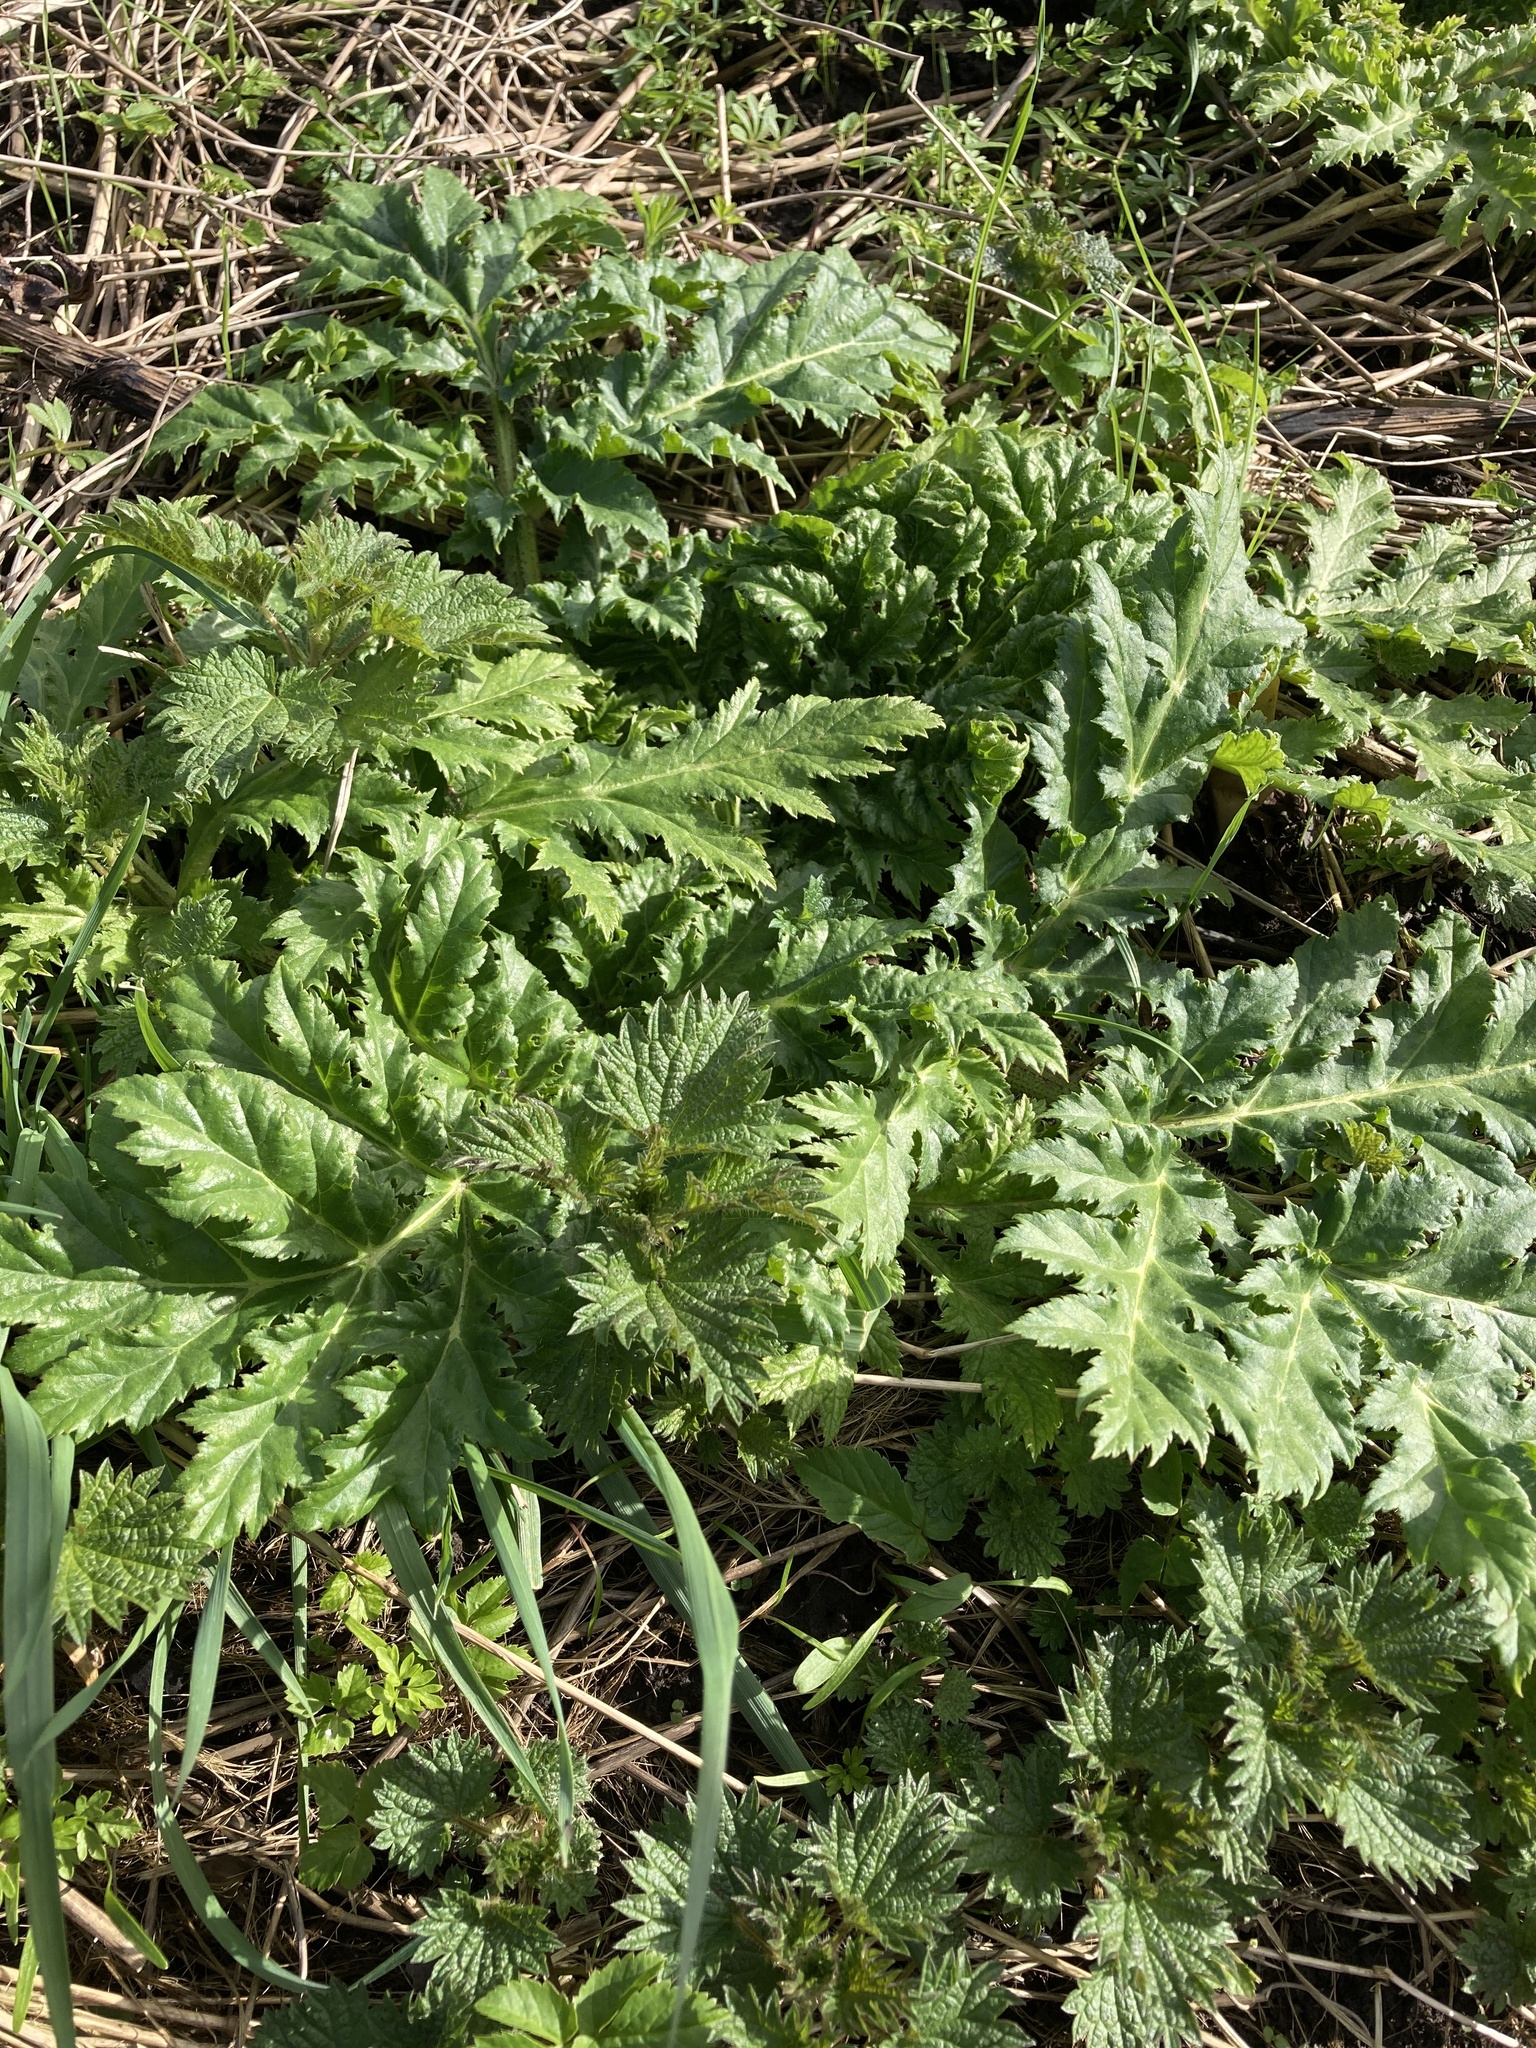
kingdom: Plantae
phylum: Tracheophyta
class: Magnoliopsida
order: Apiales
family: Apiaceae
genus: Heracleum
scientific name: Heracleum mantegazzianum
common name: Giant hogweed
